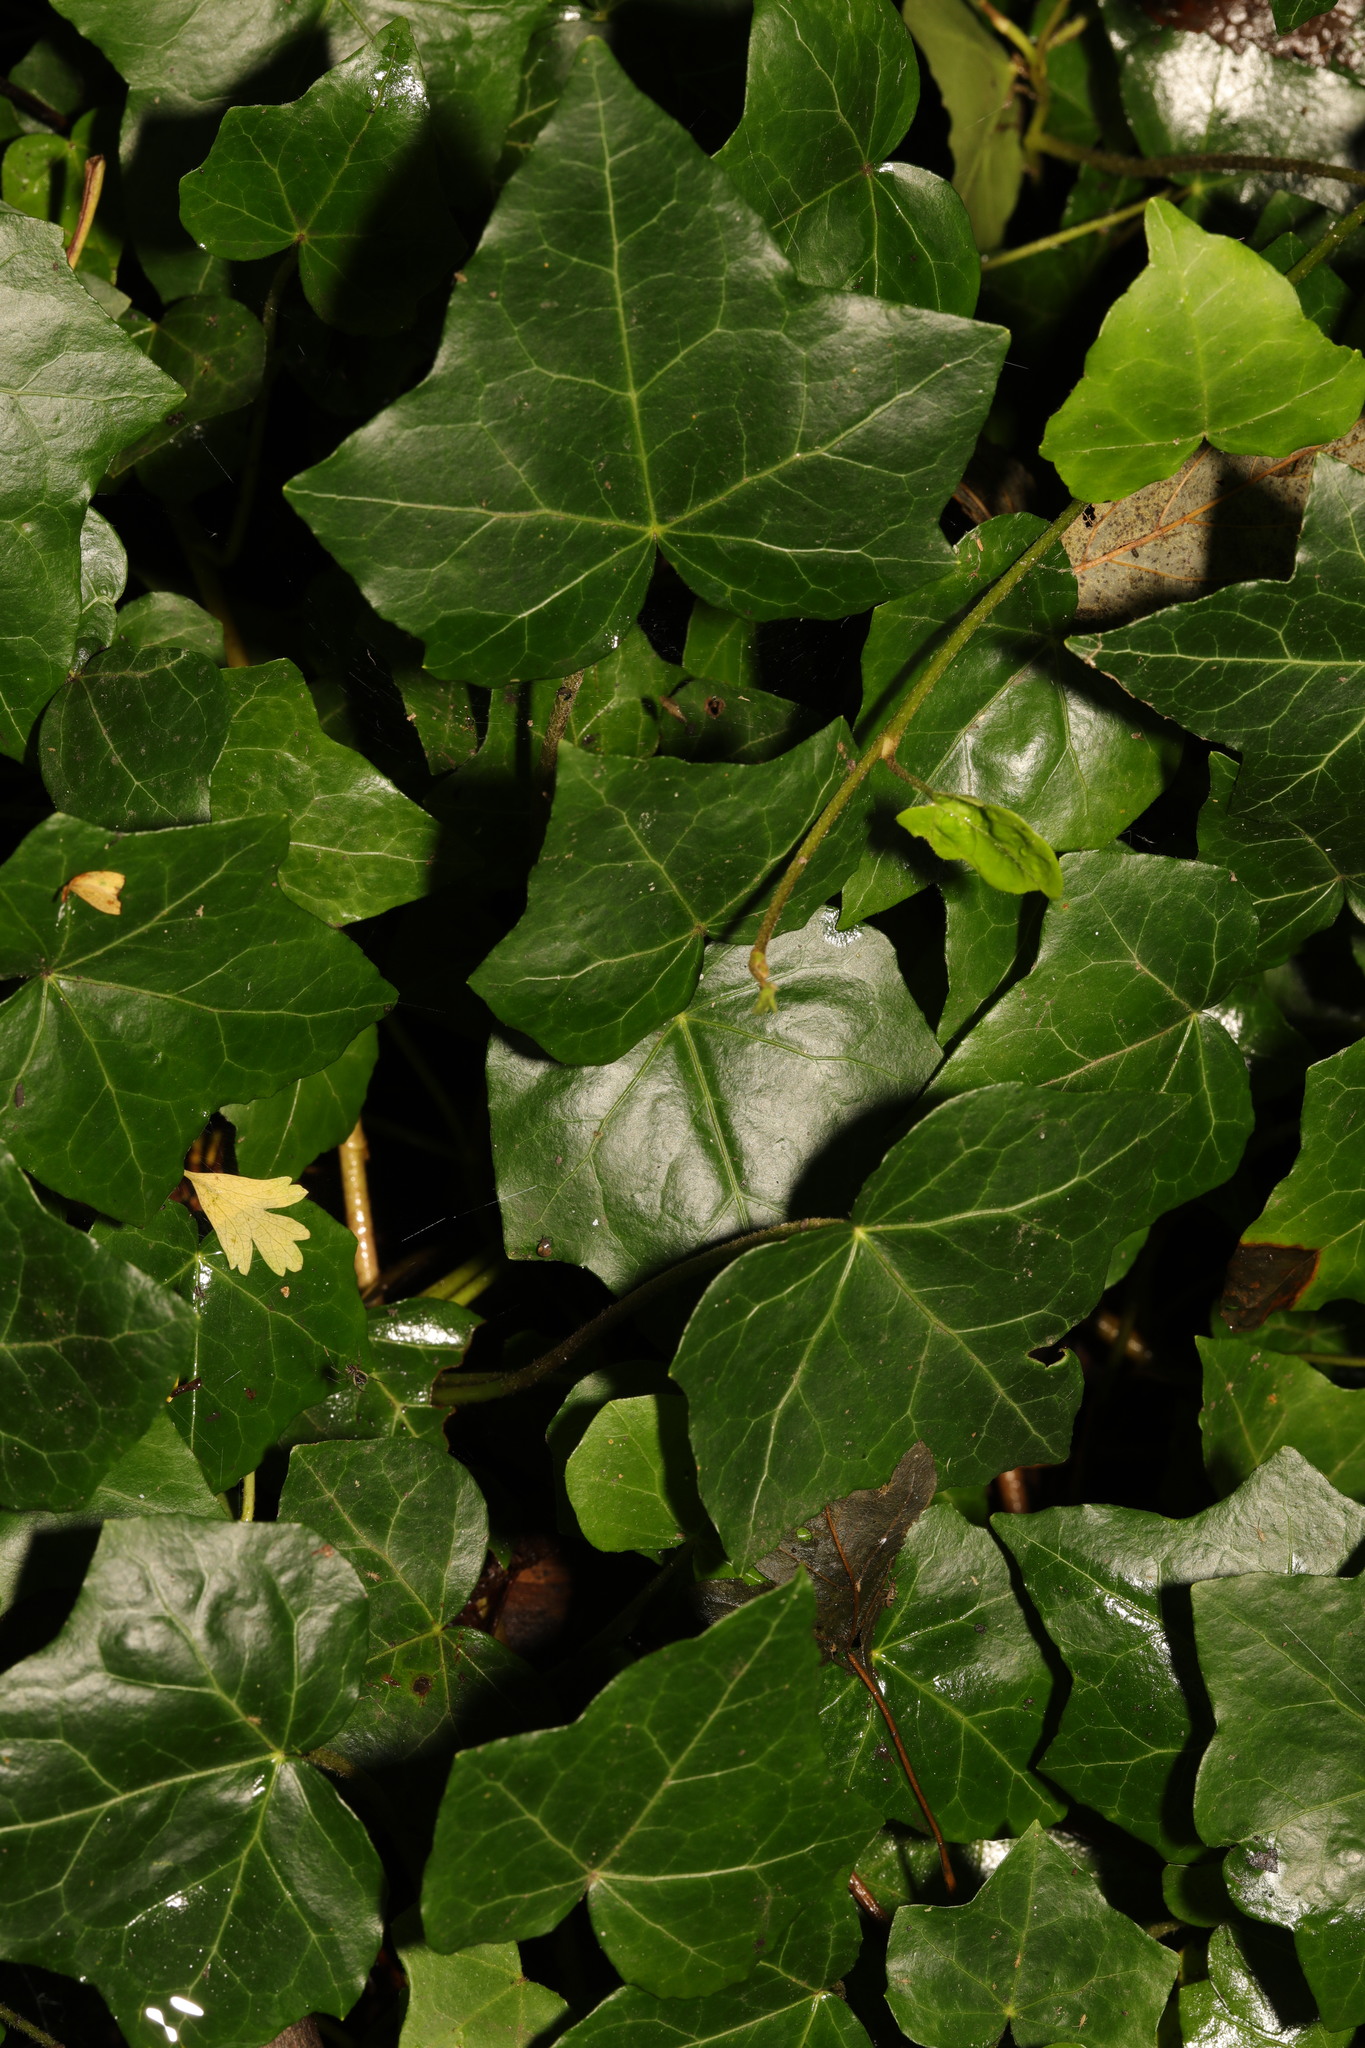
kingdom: Plantae
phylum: Tracheophyta
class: Magnoliopsida
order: Apiales
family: Araliaceae
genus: Hedera
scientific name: Hedera helix
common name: Ivy
